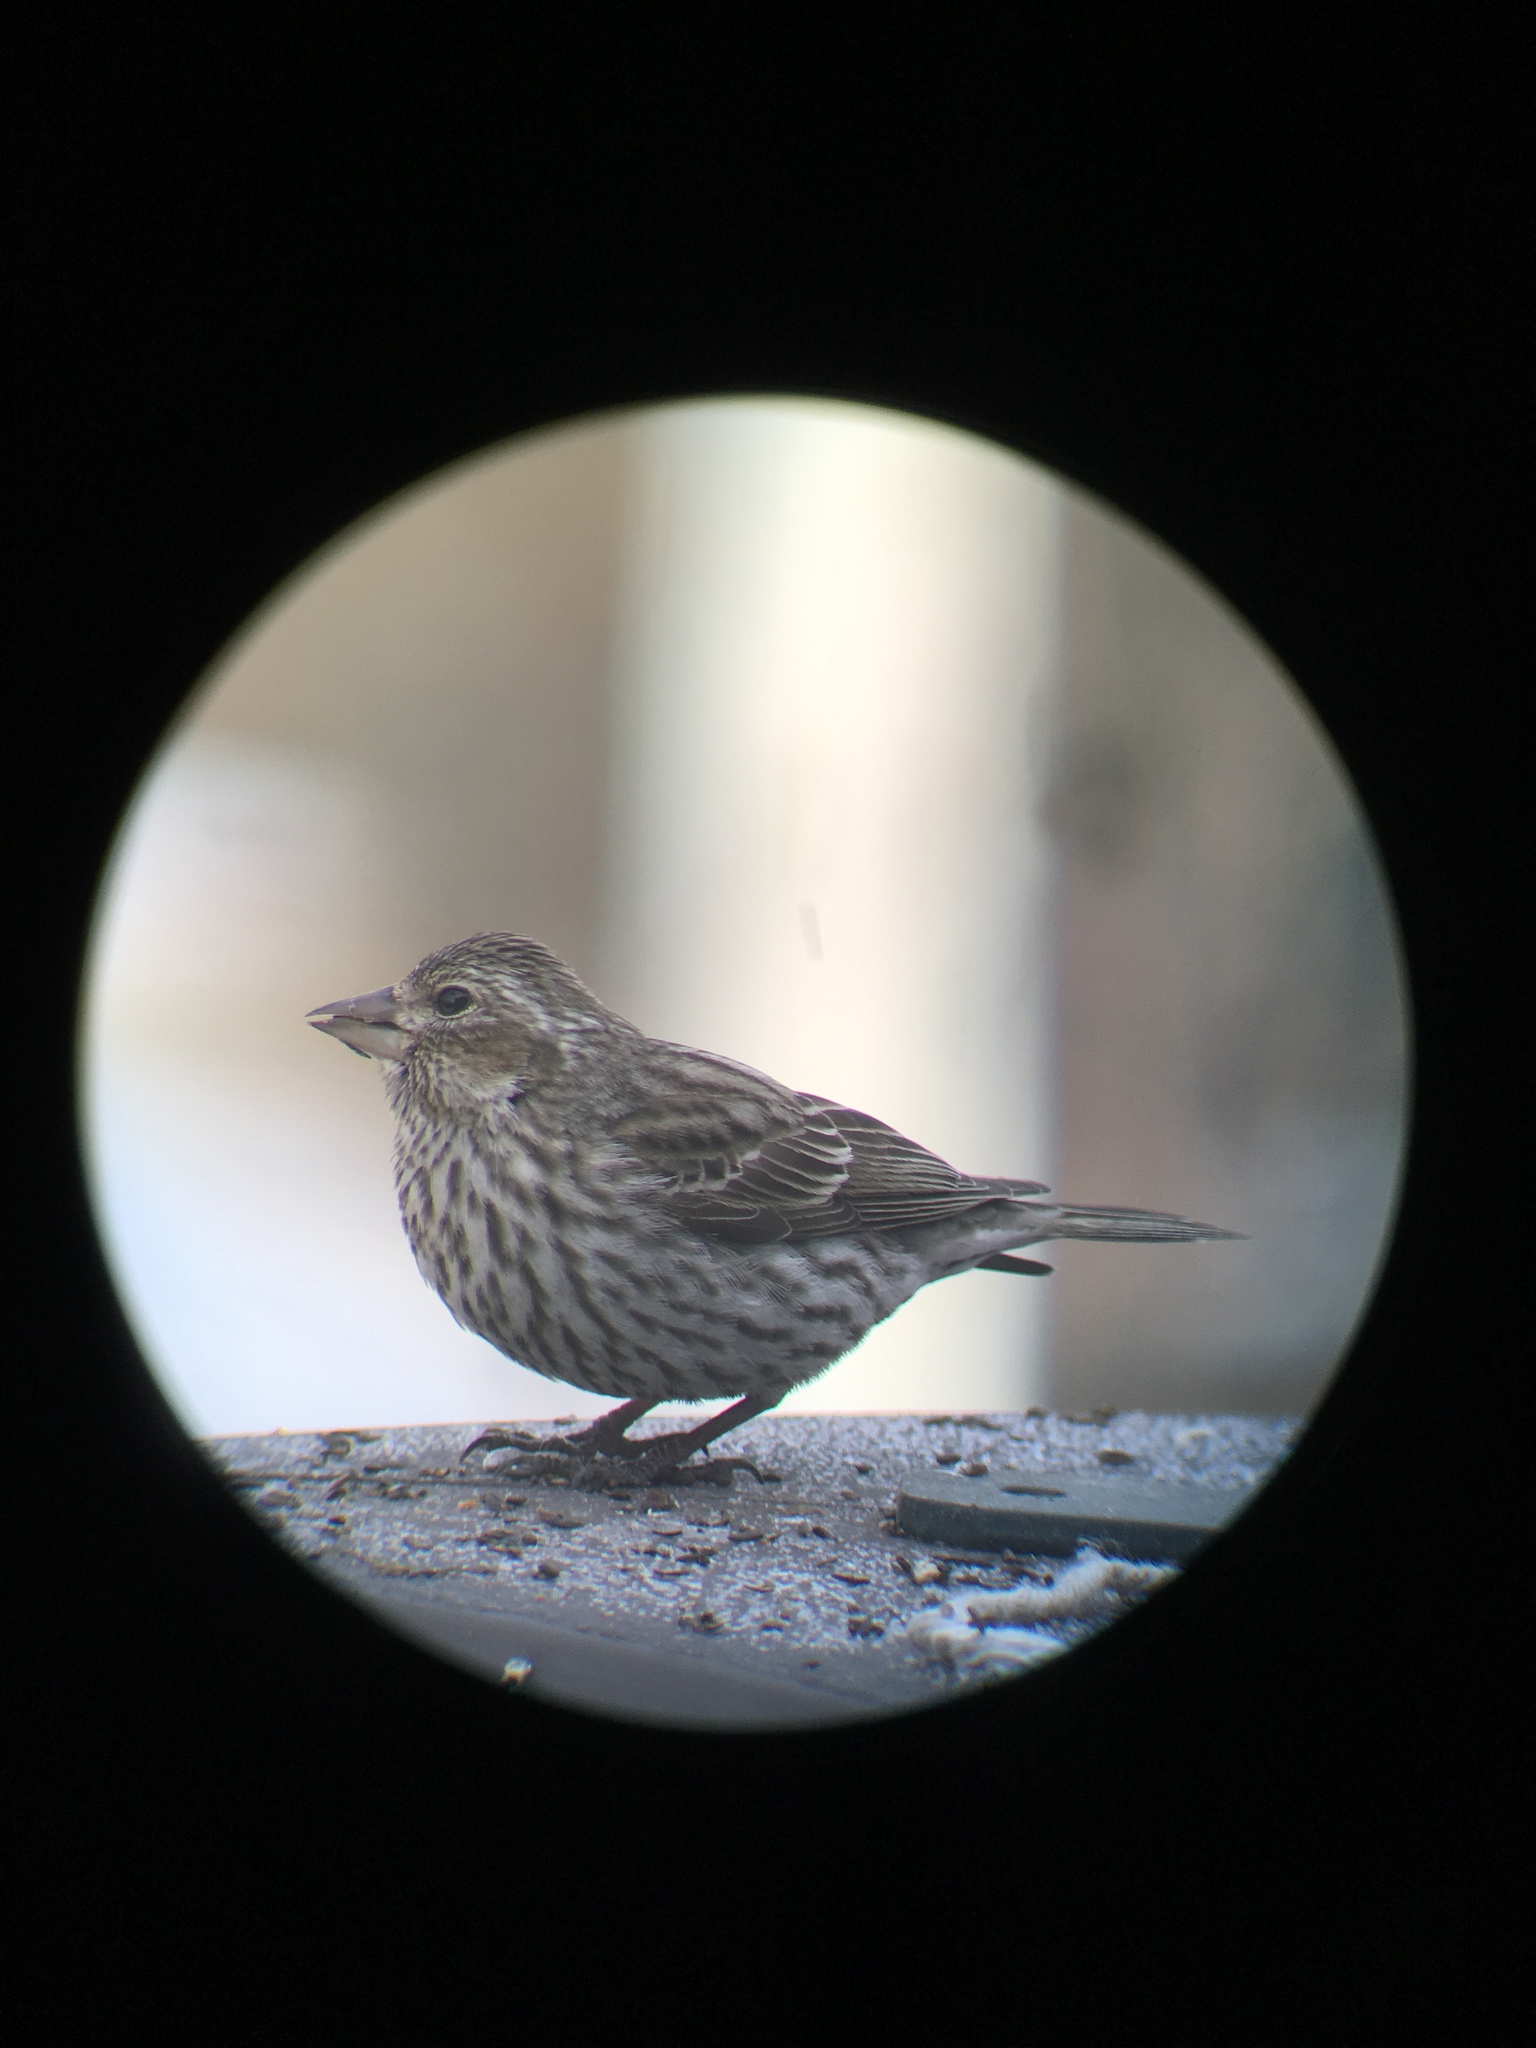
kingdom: Animalia
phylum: Chordata
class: Aves
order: Passeriformes
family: Fringillidae
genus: Haemorhous
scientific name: Haemorhous cassinii
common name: Cassin's finch
